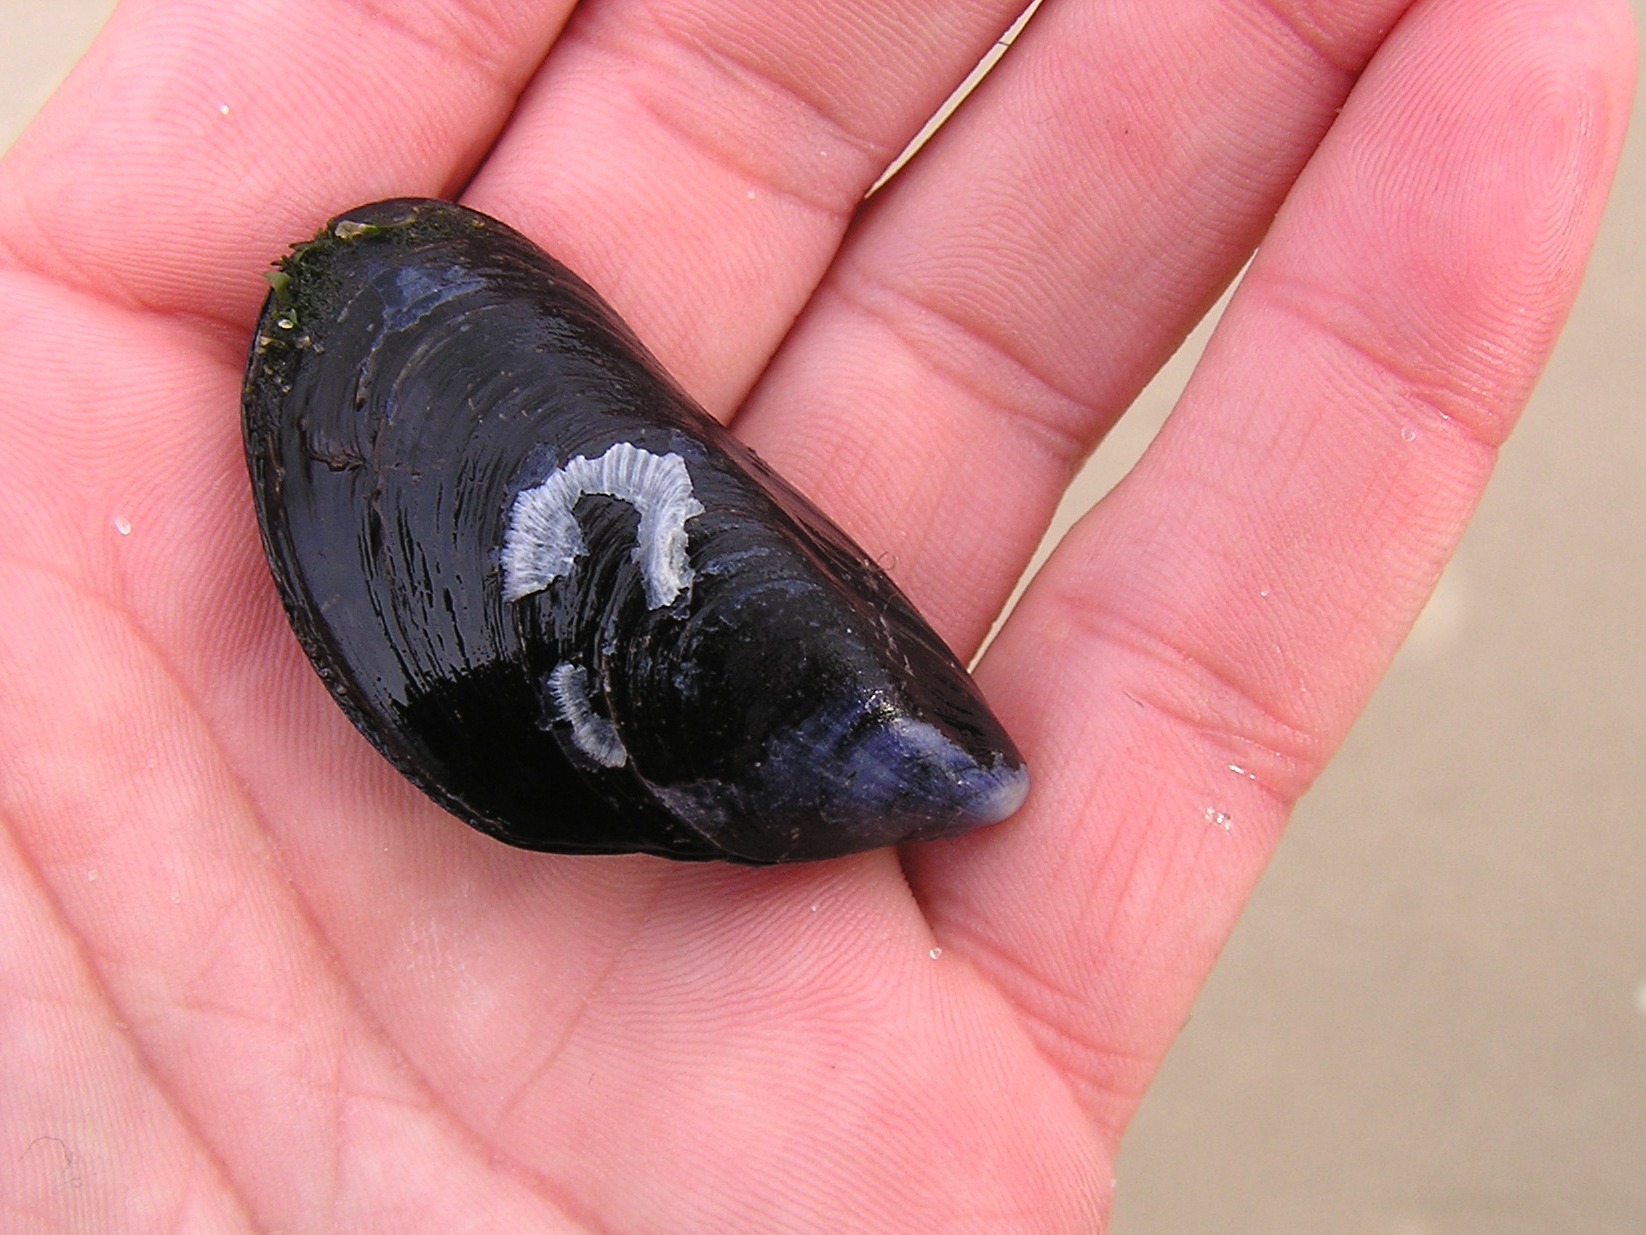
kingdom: Animalia
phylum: Mollusca
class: Bivalvia
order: Mytilida
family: Mytilidae
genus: Mytilus
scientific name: Mytilus edulis
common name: Blue mussel
